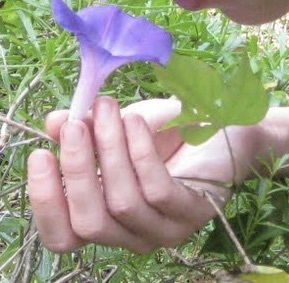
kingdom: Plantae
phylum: Tracheophyta
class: Magnoliopsida
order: Solanales
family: Convolvulaceae
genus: Ipomoea
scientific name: Ipomoea indica
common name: Blue dawnflower
